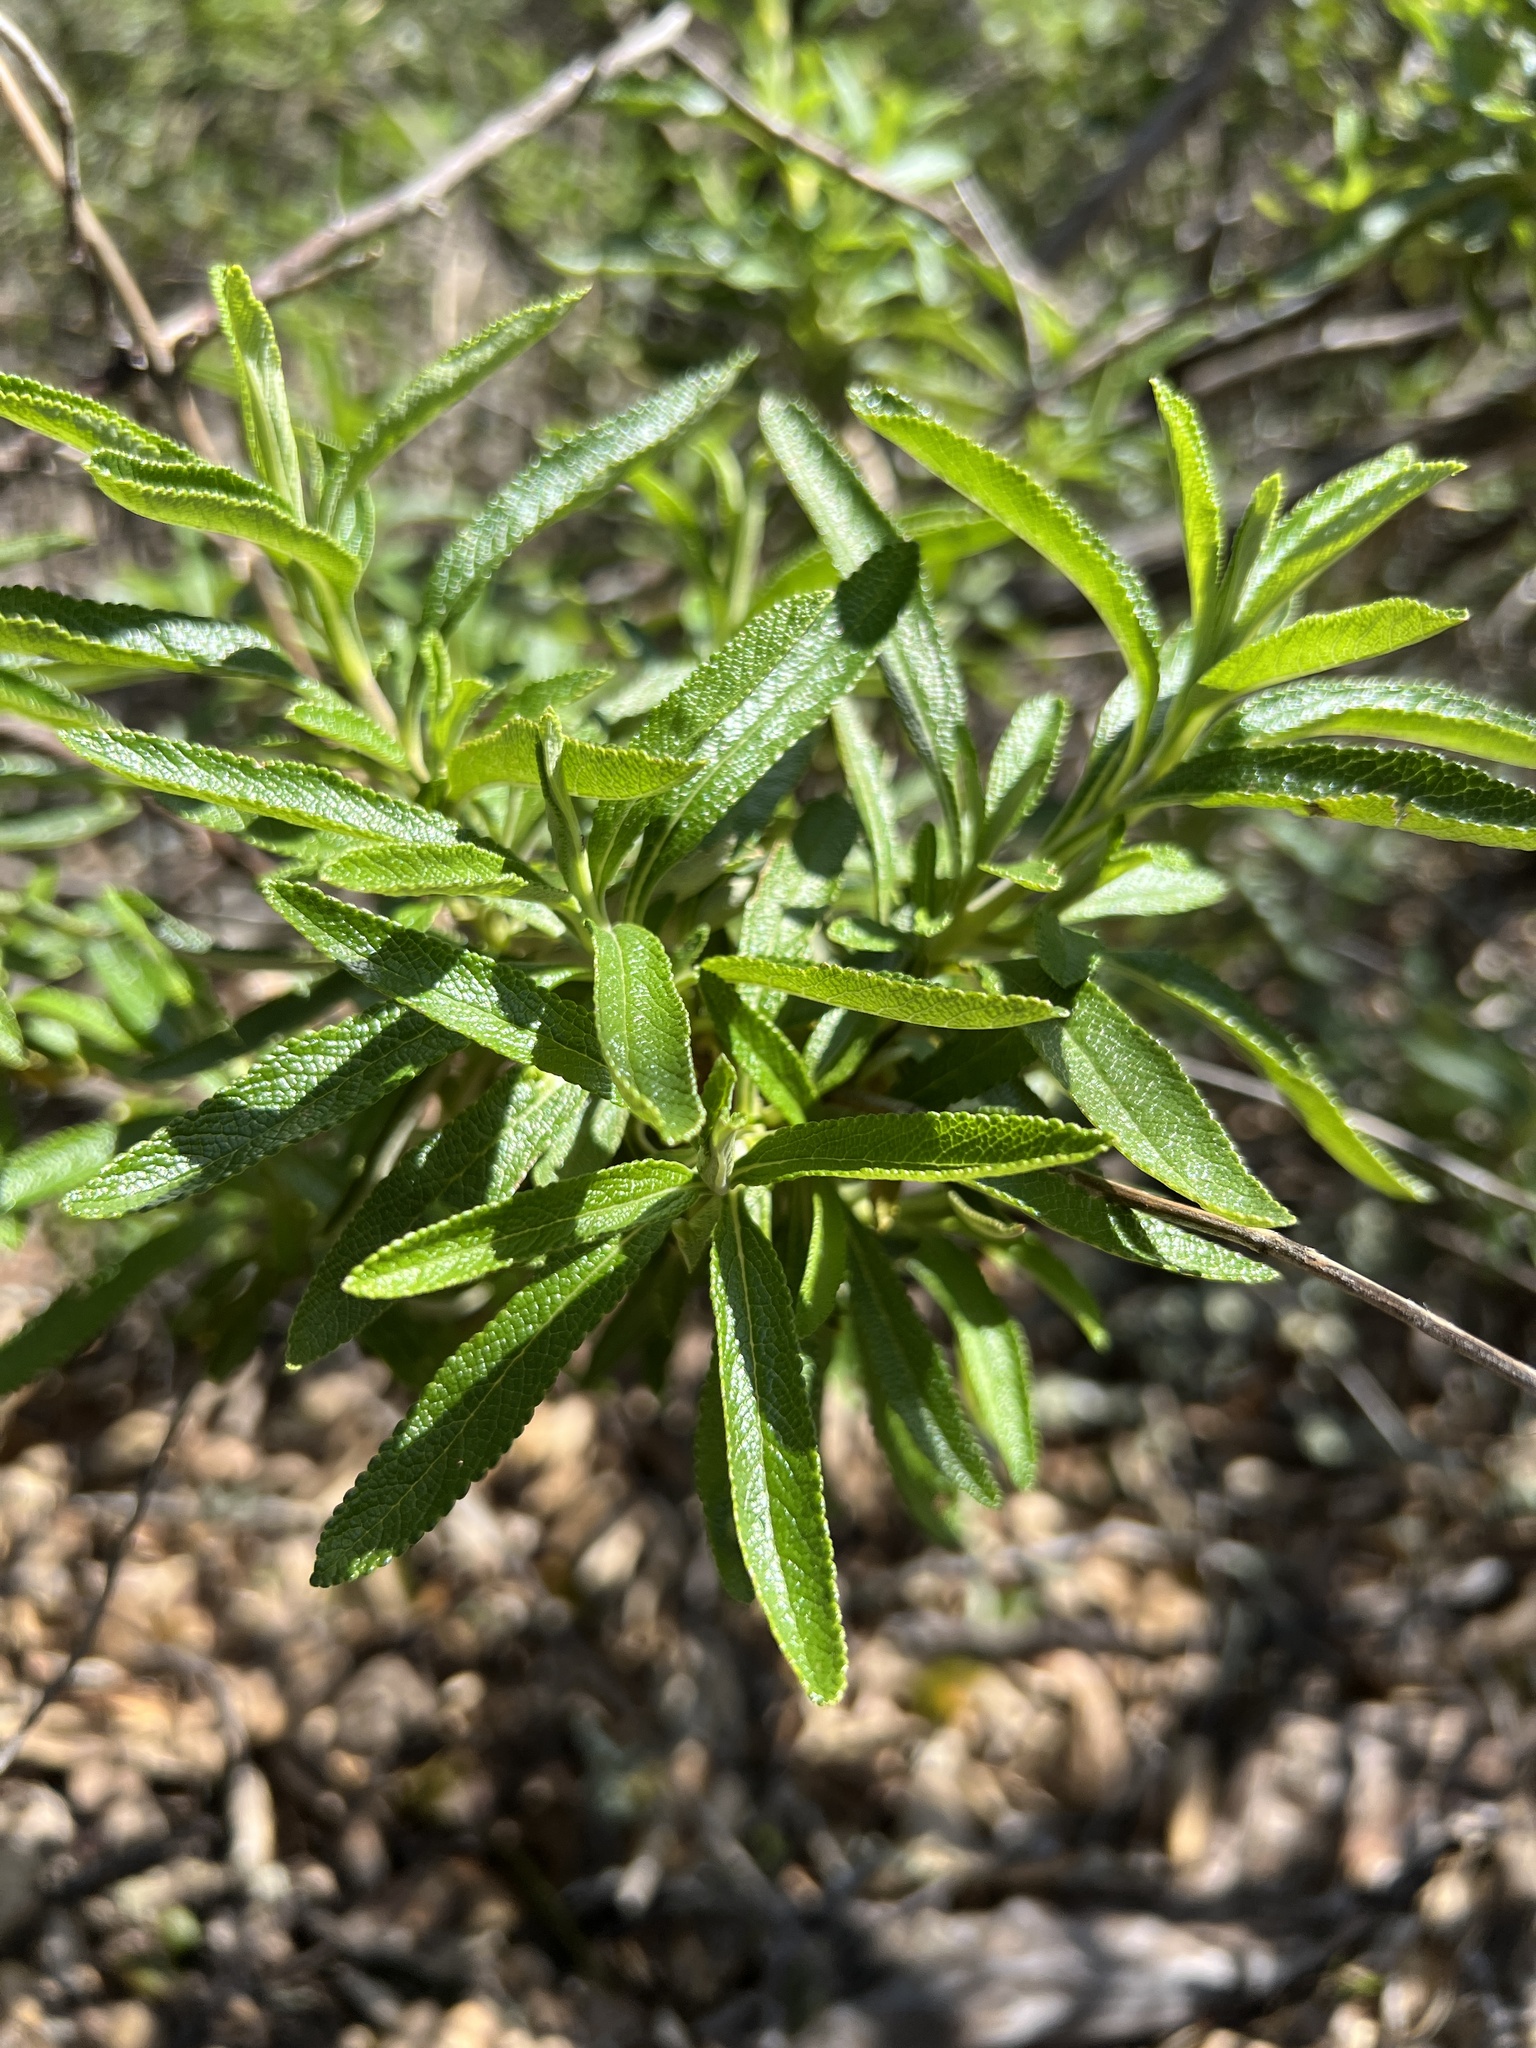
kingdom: Plantae
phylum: Tracheophyta
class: Magnoliopsida
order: Lamiales
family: Lamiaceae
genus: Salvia
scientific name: Salvia mellifera
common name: Black sage
